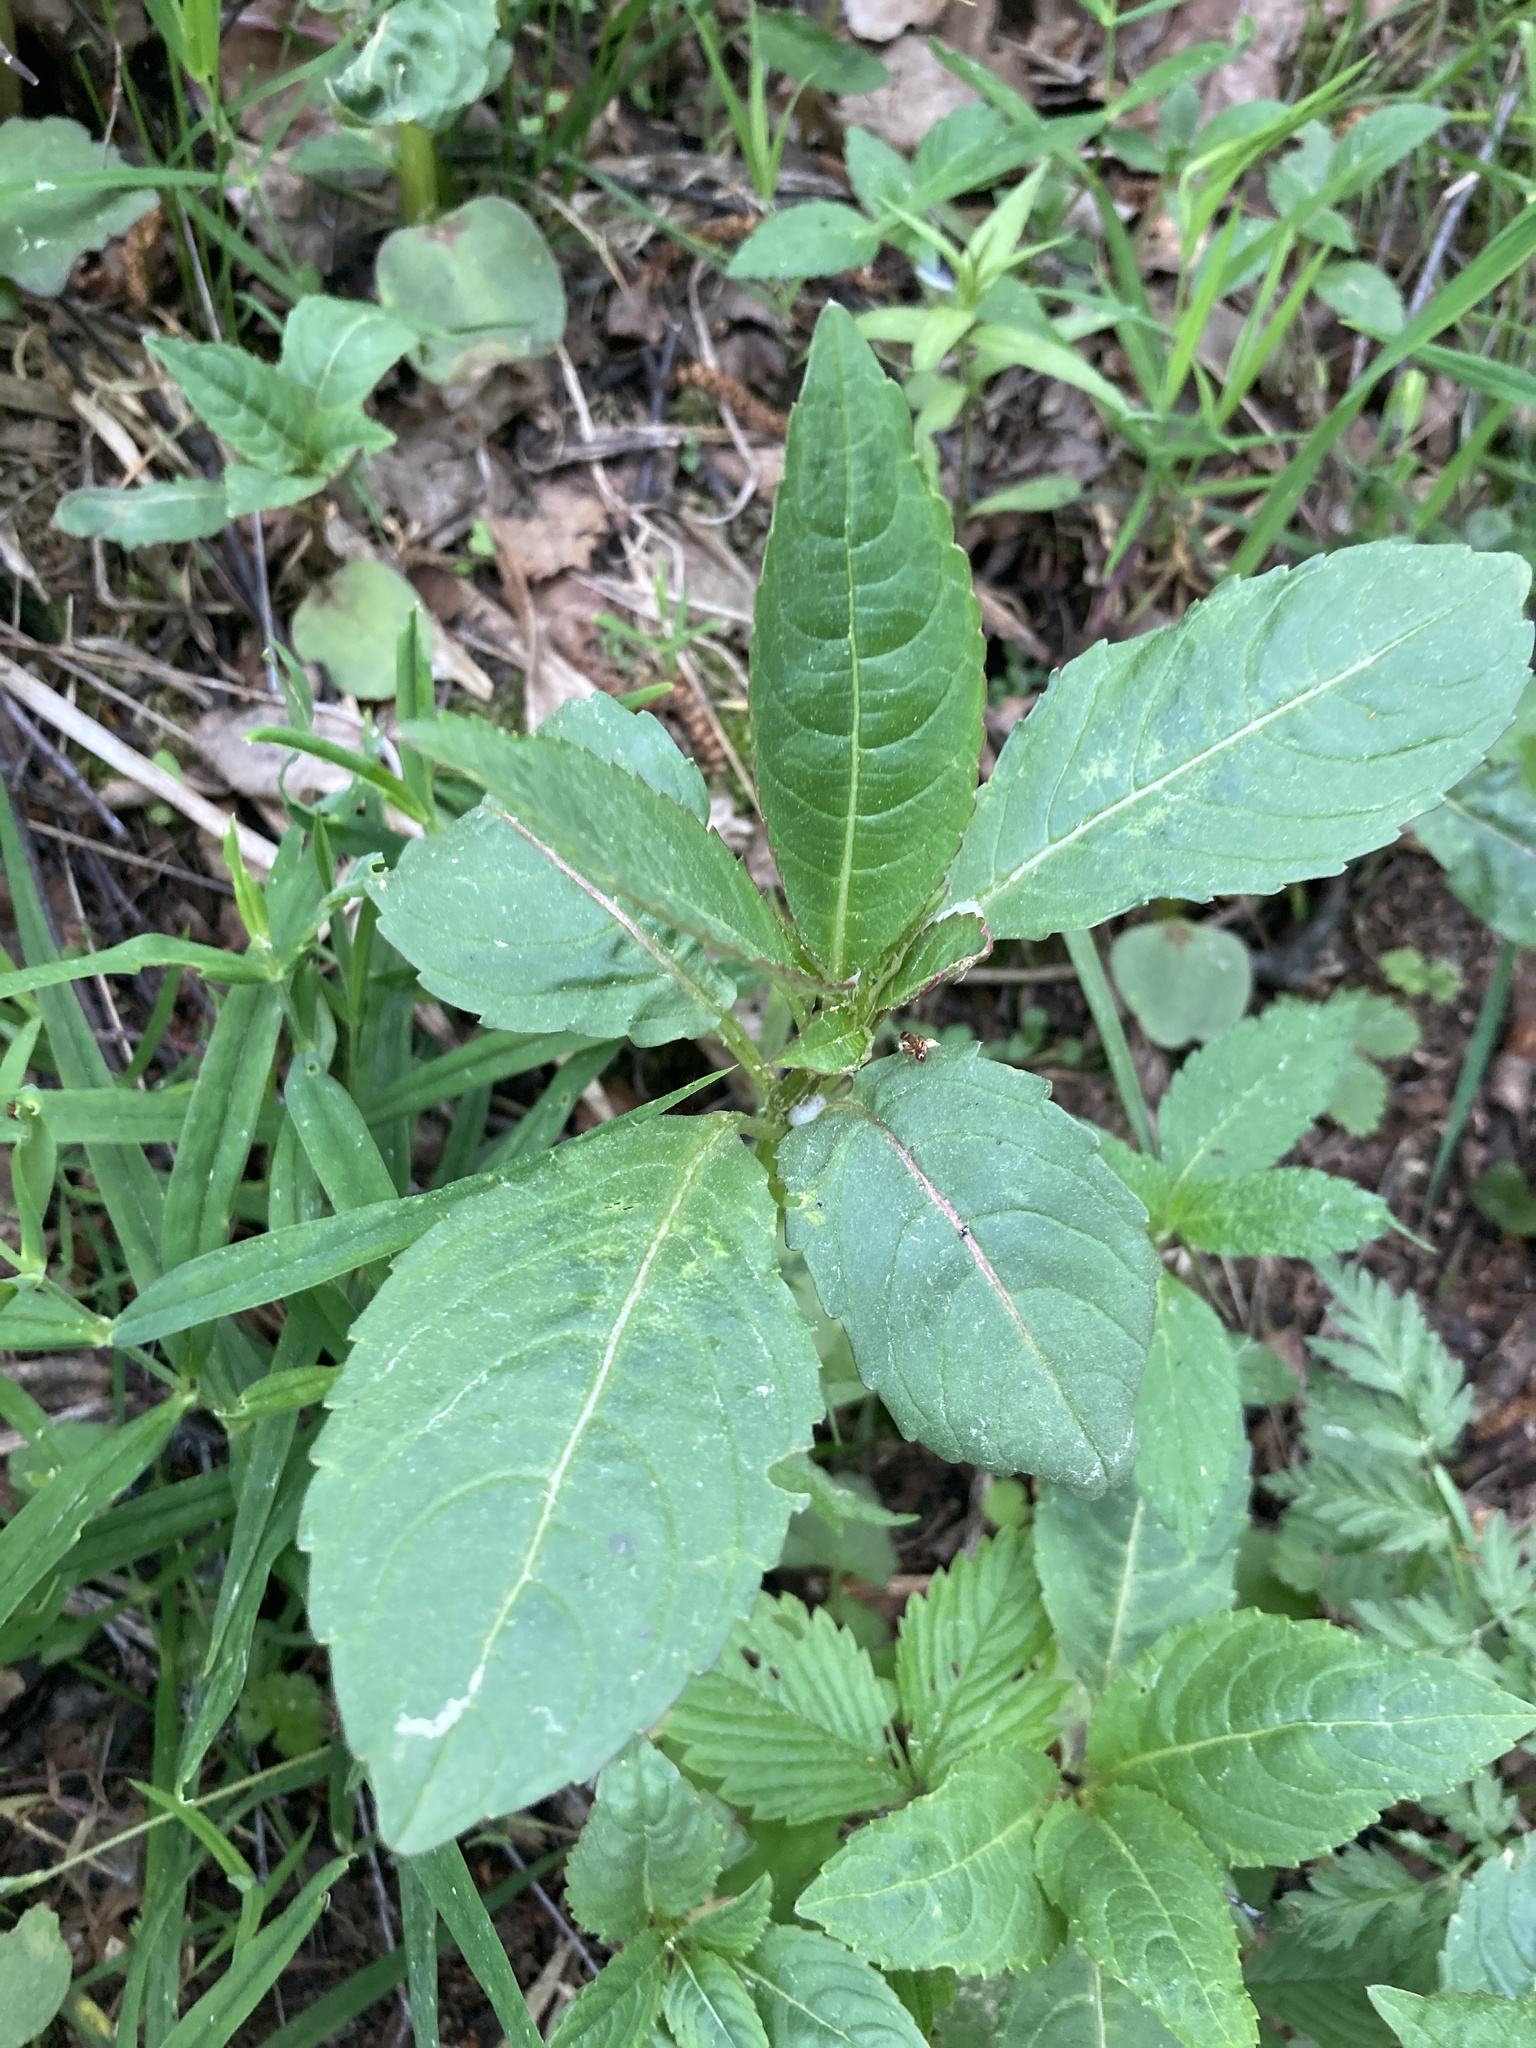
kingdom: Plantae
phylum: Tracheophyta
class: Magnoliopsida
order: Ericales
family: Balsaminaceae
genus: Impatiens
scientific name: Impatiens glandulifera
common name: Himalayan balsam
